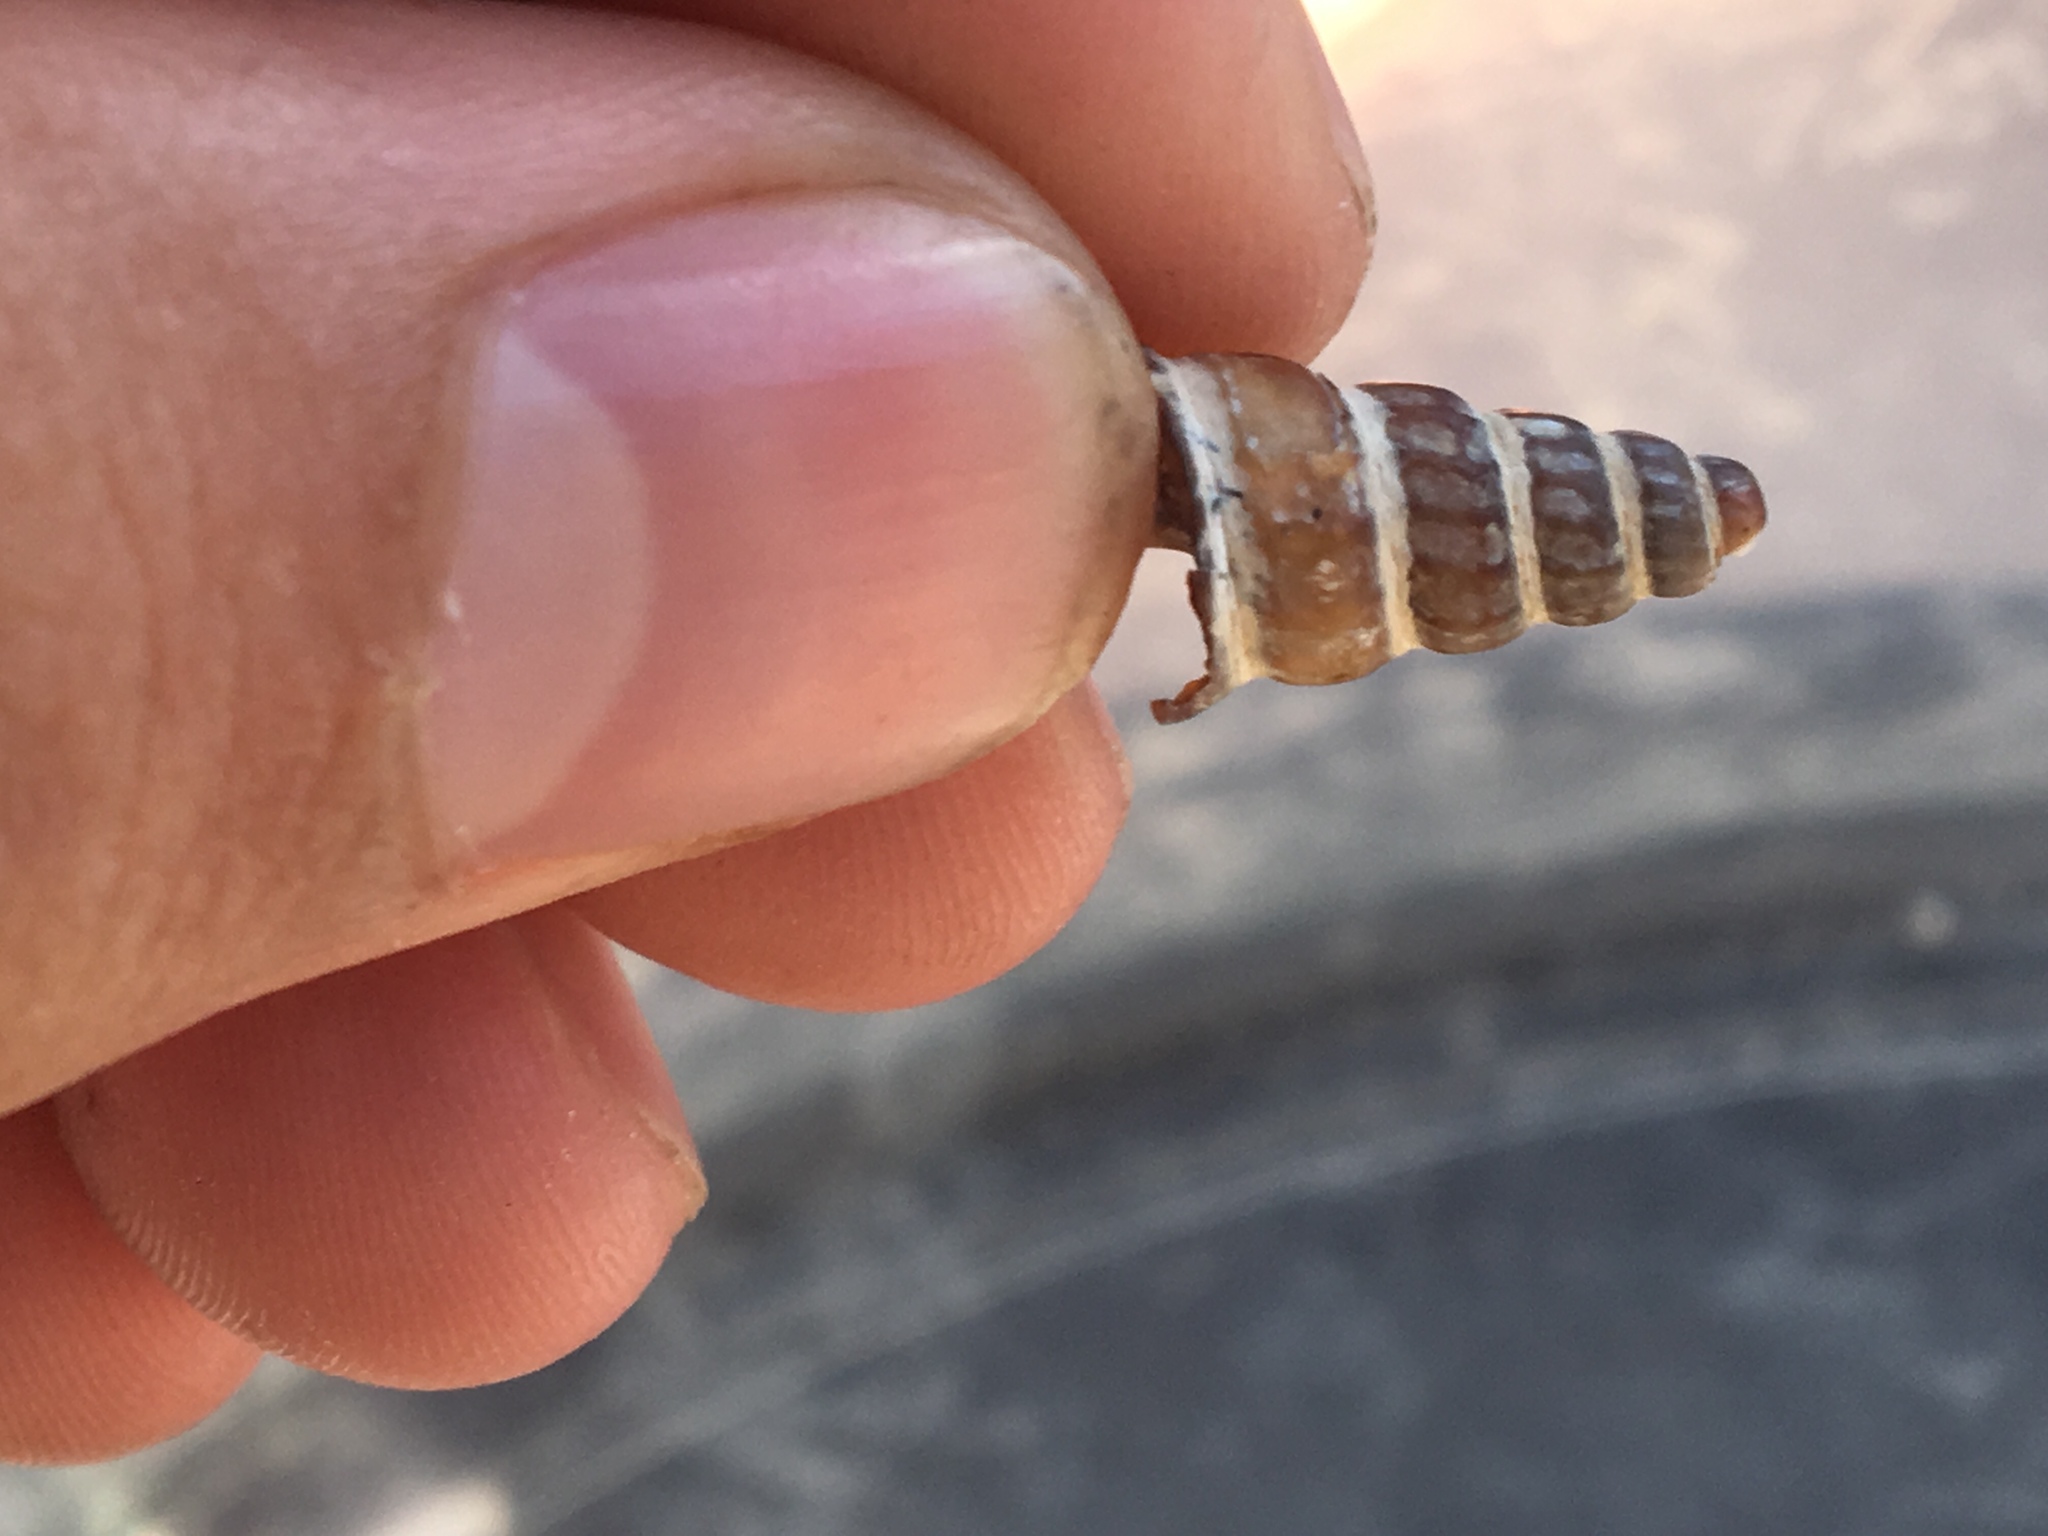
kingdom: Animalia
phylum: Mollusca
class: Gastropoda
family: Potamididae
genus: Cerithideopsis
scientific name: Cerithideopsis californica
